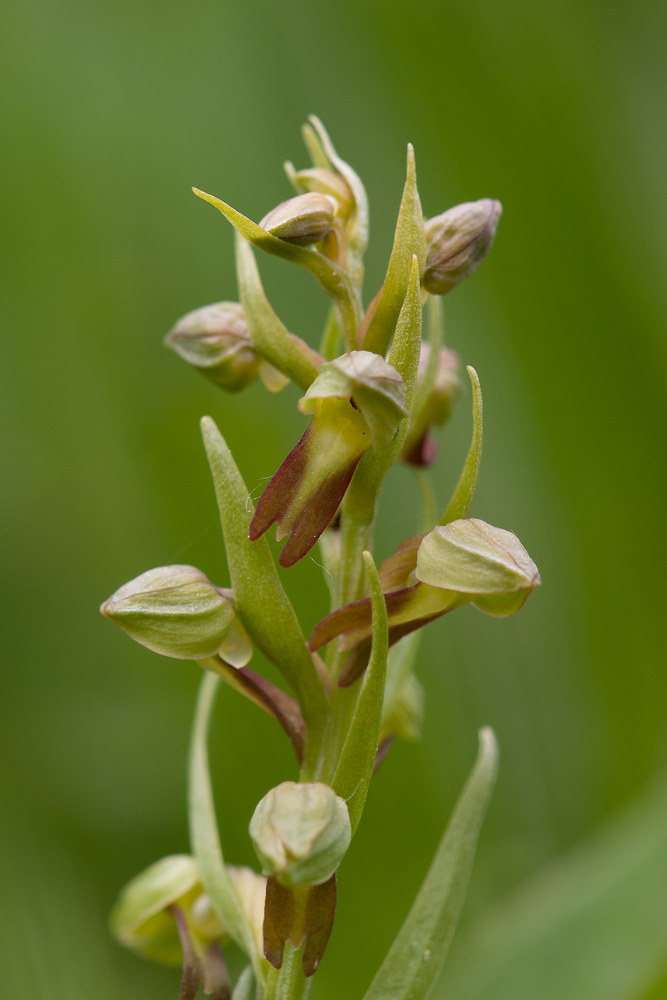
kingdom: Plantae
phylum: Tracheophyta
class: Liliopsida
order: Asparagales
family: Orchidaceae
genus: Dactylorhiza
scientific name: Dactylorhiza viridis
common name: Longbract frog orchid
